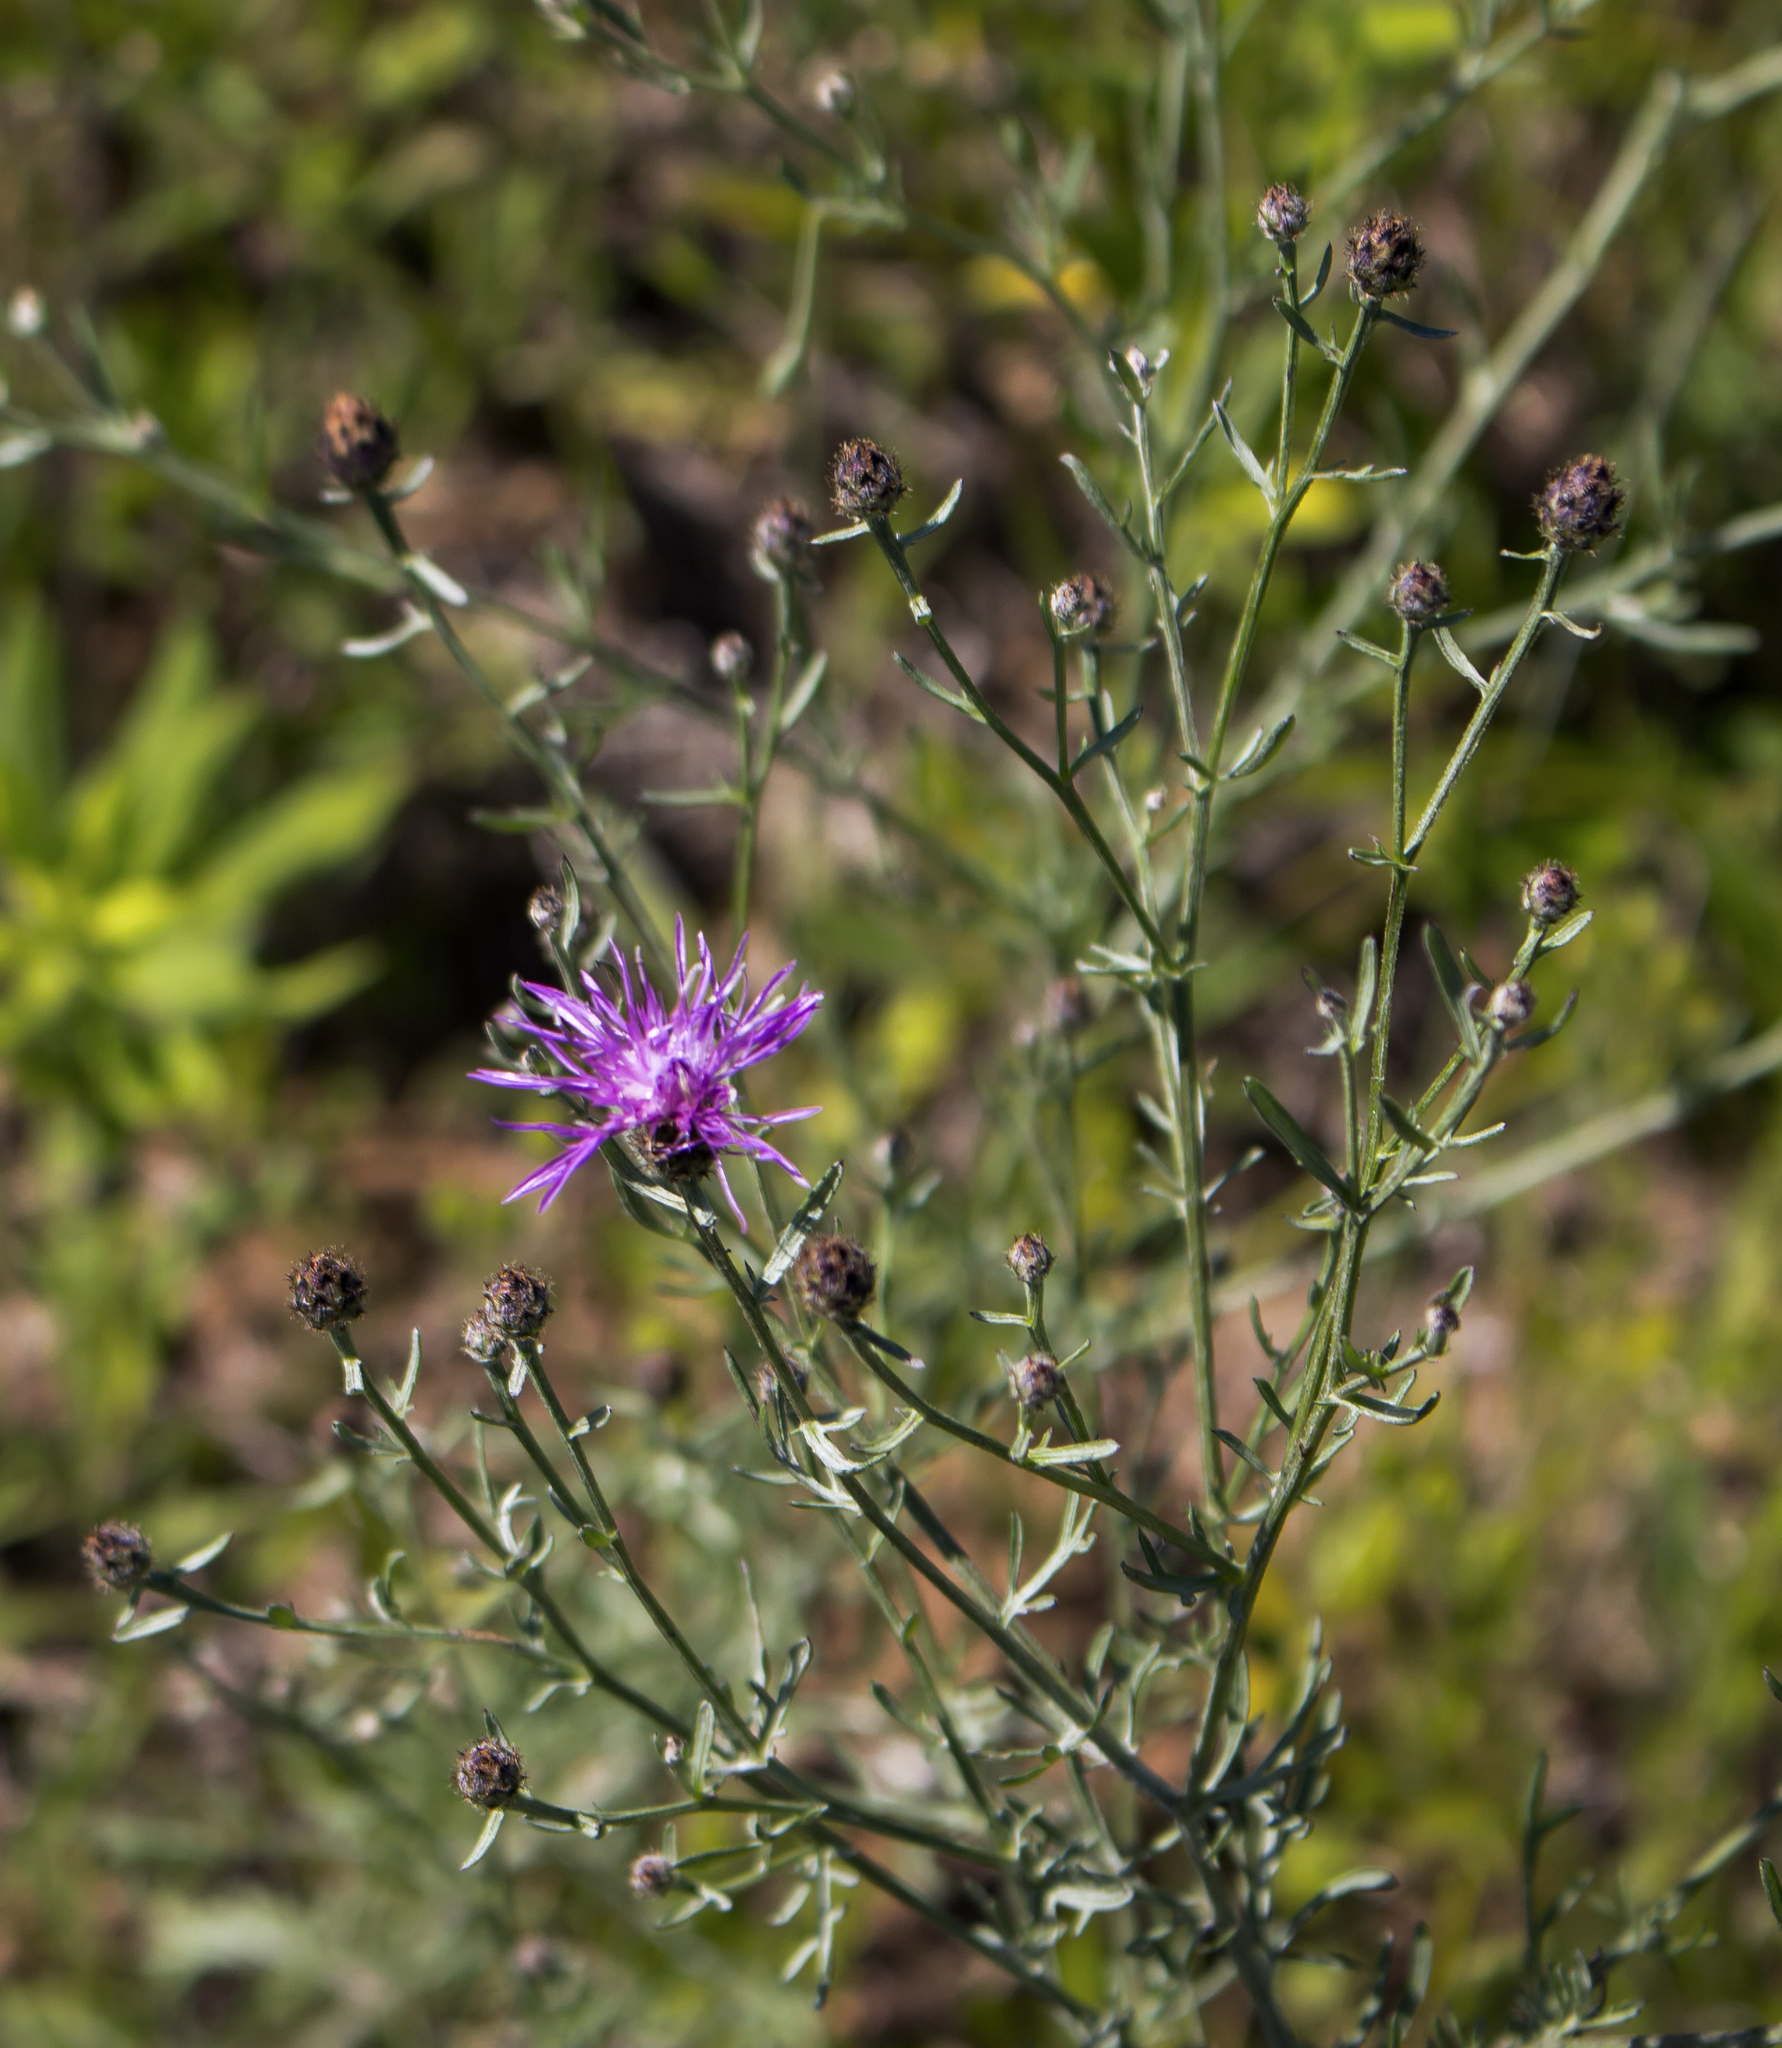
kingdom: Plantae
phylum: Tracheophyta
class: Magnoliopsida
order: Asterales
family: Asteraceae
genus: Centaurea
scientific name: Centaurea stoebe
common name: Spotted knapweed
